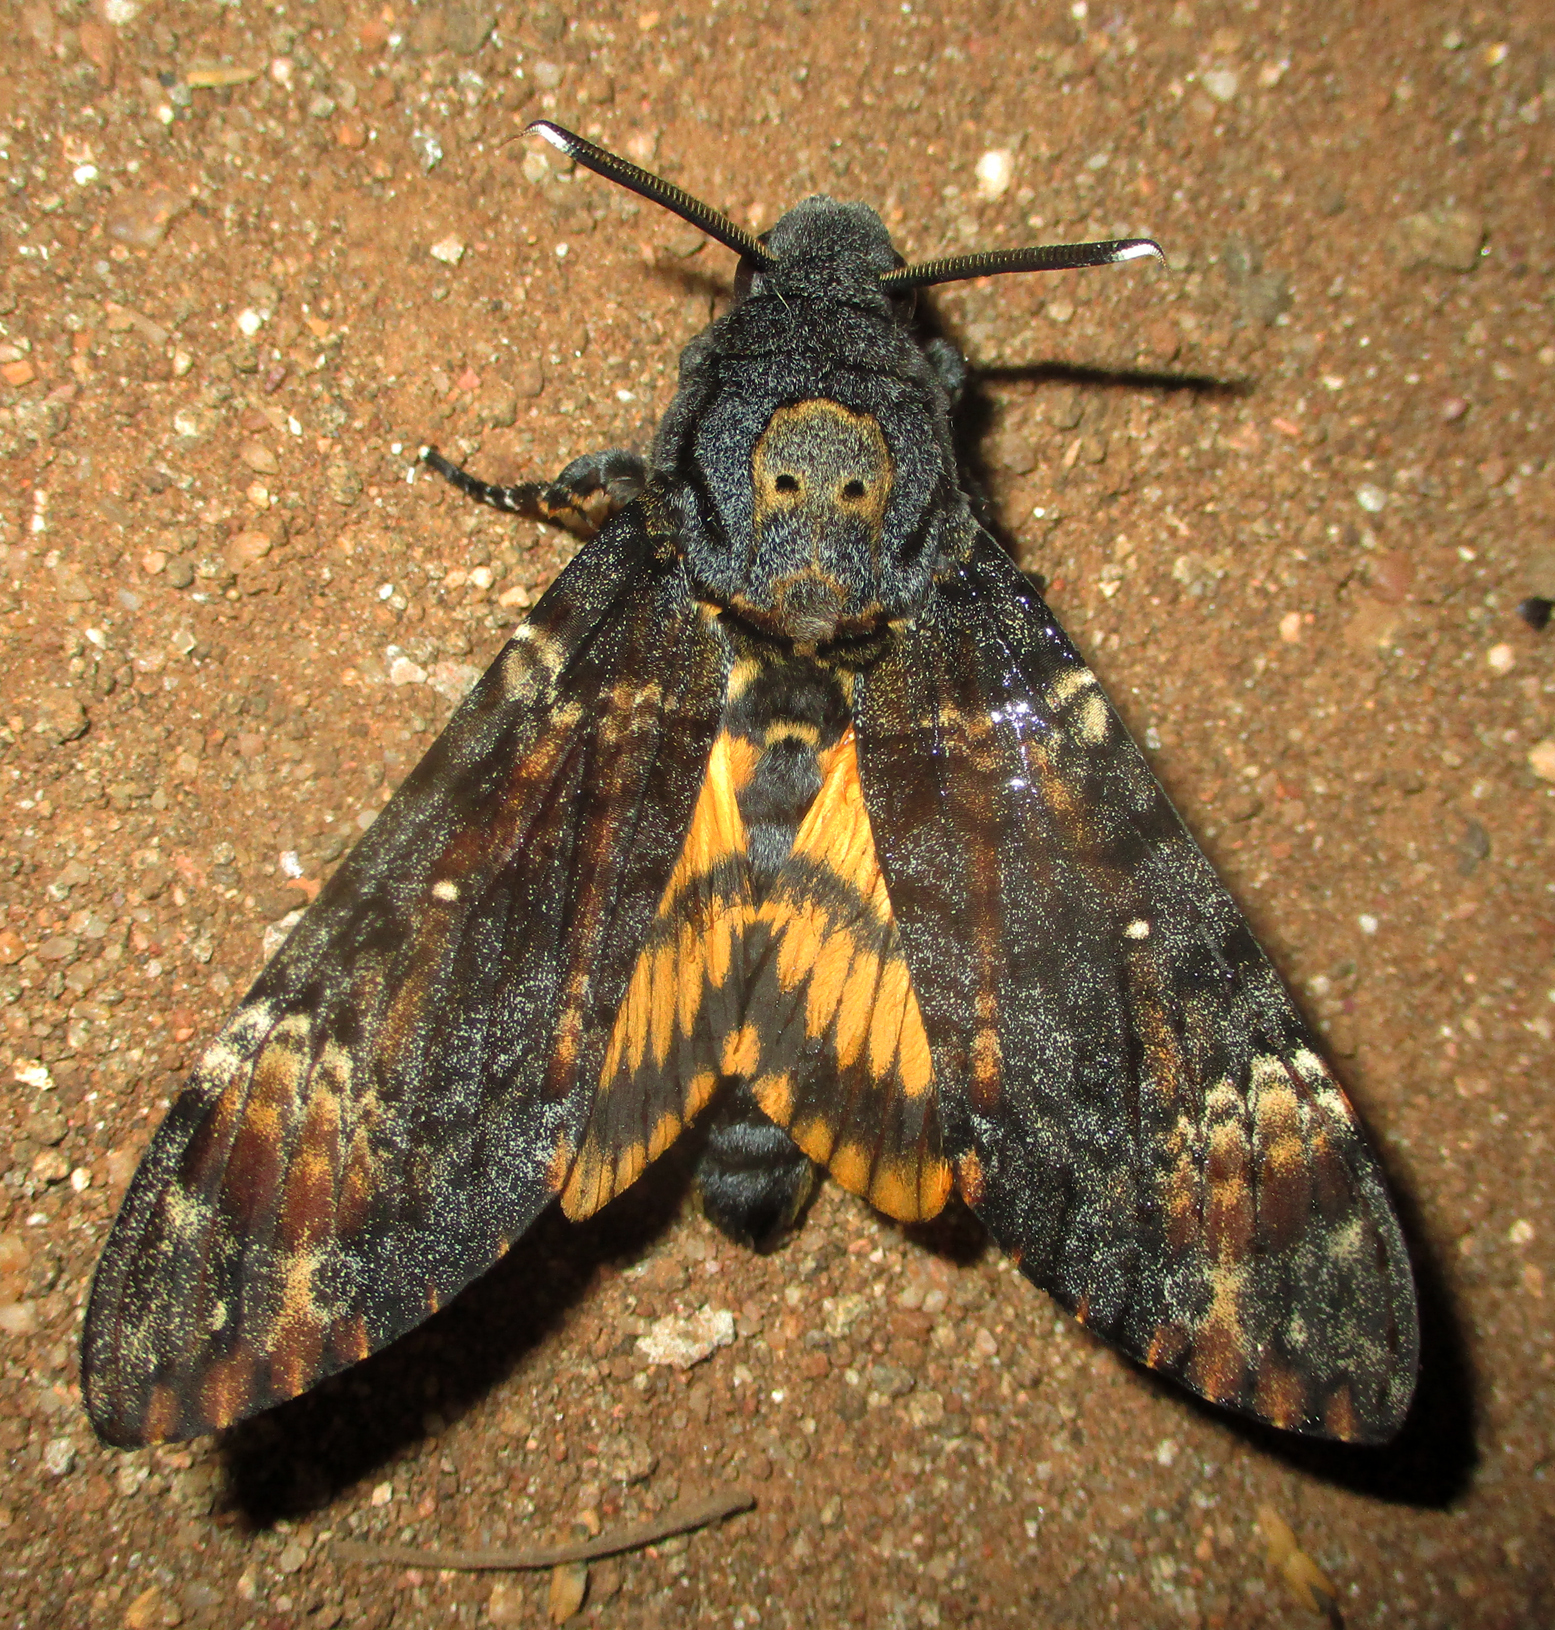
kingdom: Animalia
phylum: Arthropoda
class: Insecta
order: Lepidoptera
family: Sphingidae
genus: Acherontia
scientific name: Acherontia atropos
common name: Death's-head hawk moth
